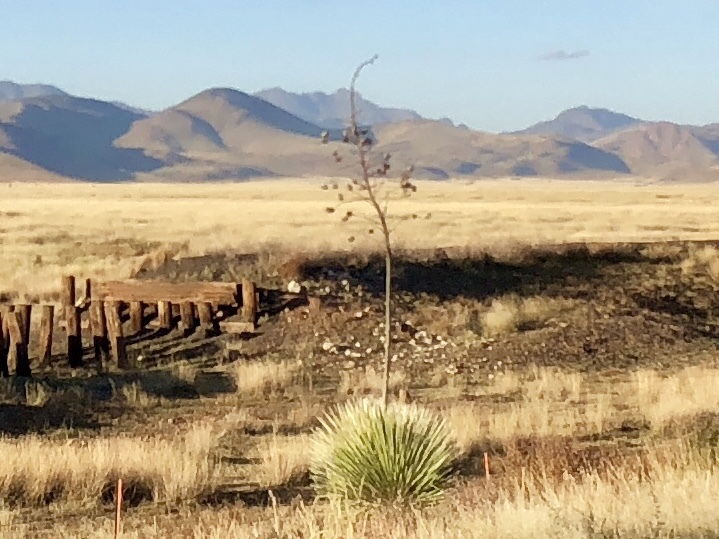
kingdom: Plantae
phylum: Tracheophyta
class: Liliopsida
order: Asparagales
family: Asparagaceae
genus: Yucca
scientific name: Yucca elata
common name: Palmella
